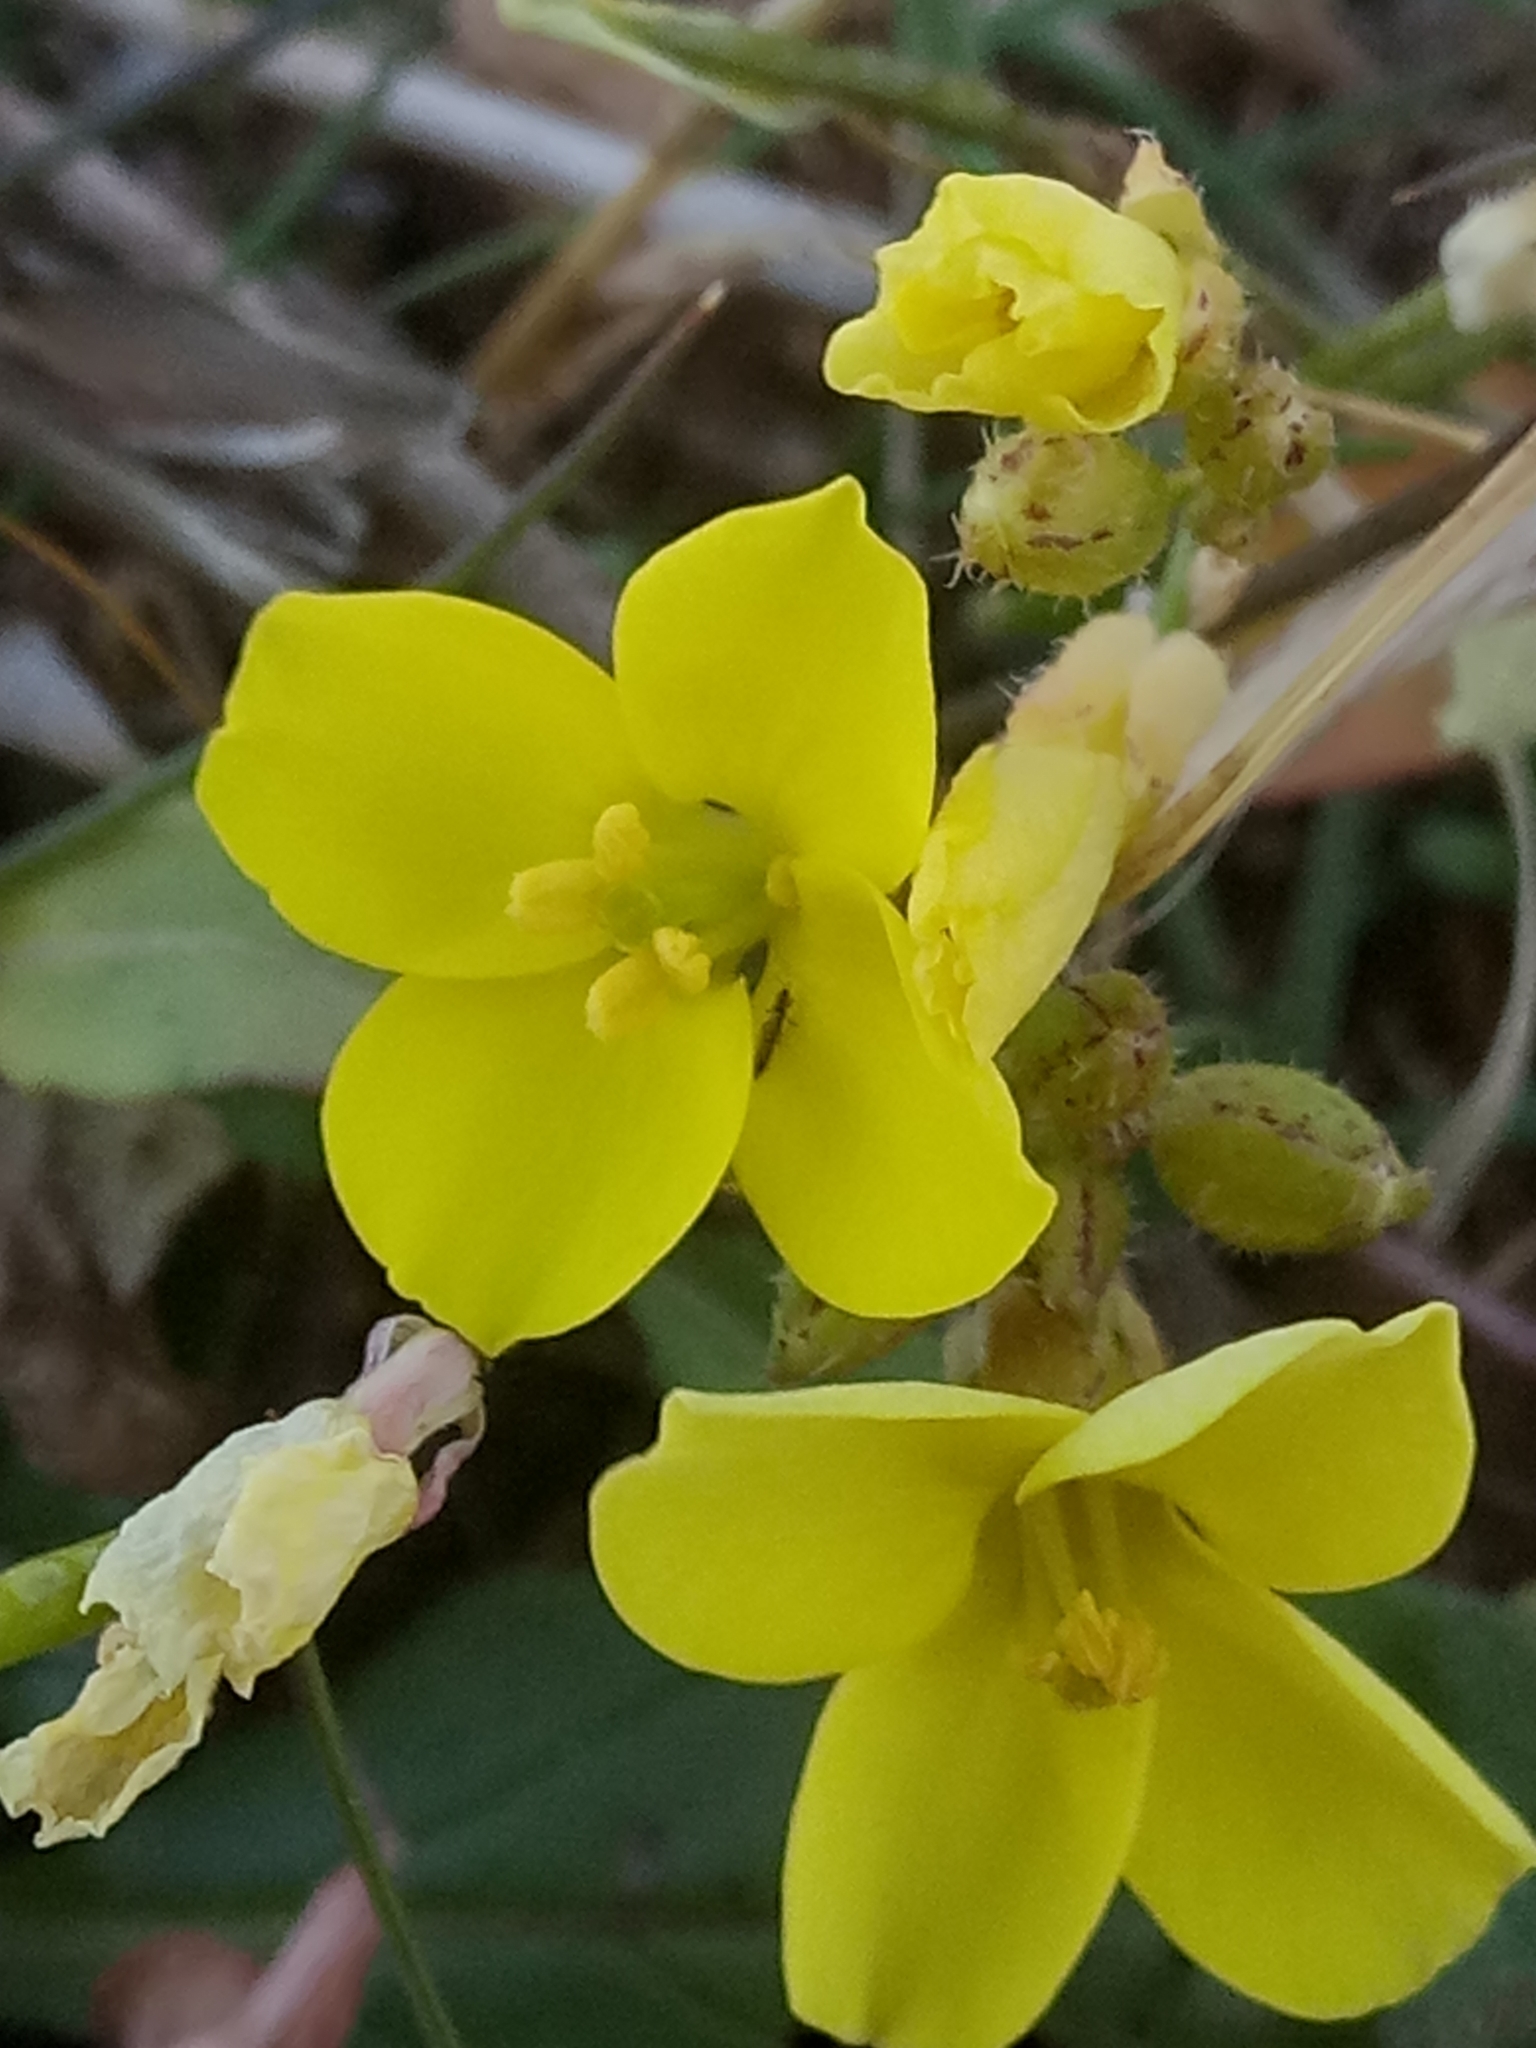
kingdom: Plantae
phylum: Tracheophyta
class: Magnoliopsida
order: Brassicales
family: Brassicaceae
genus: Diplotaxis
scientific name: Diplotaxis muralis
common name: Annual wall-rocket
